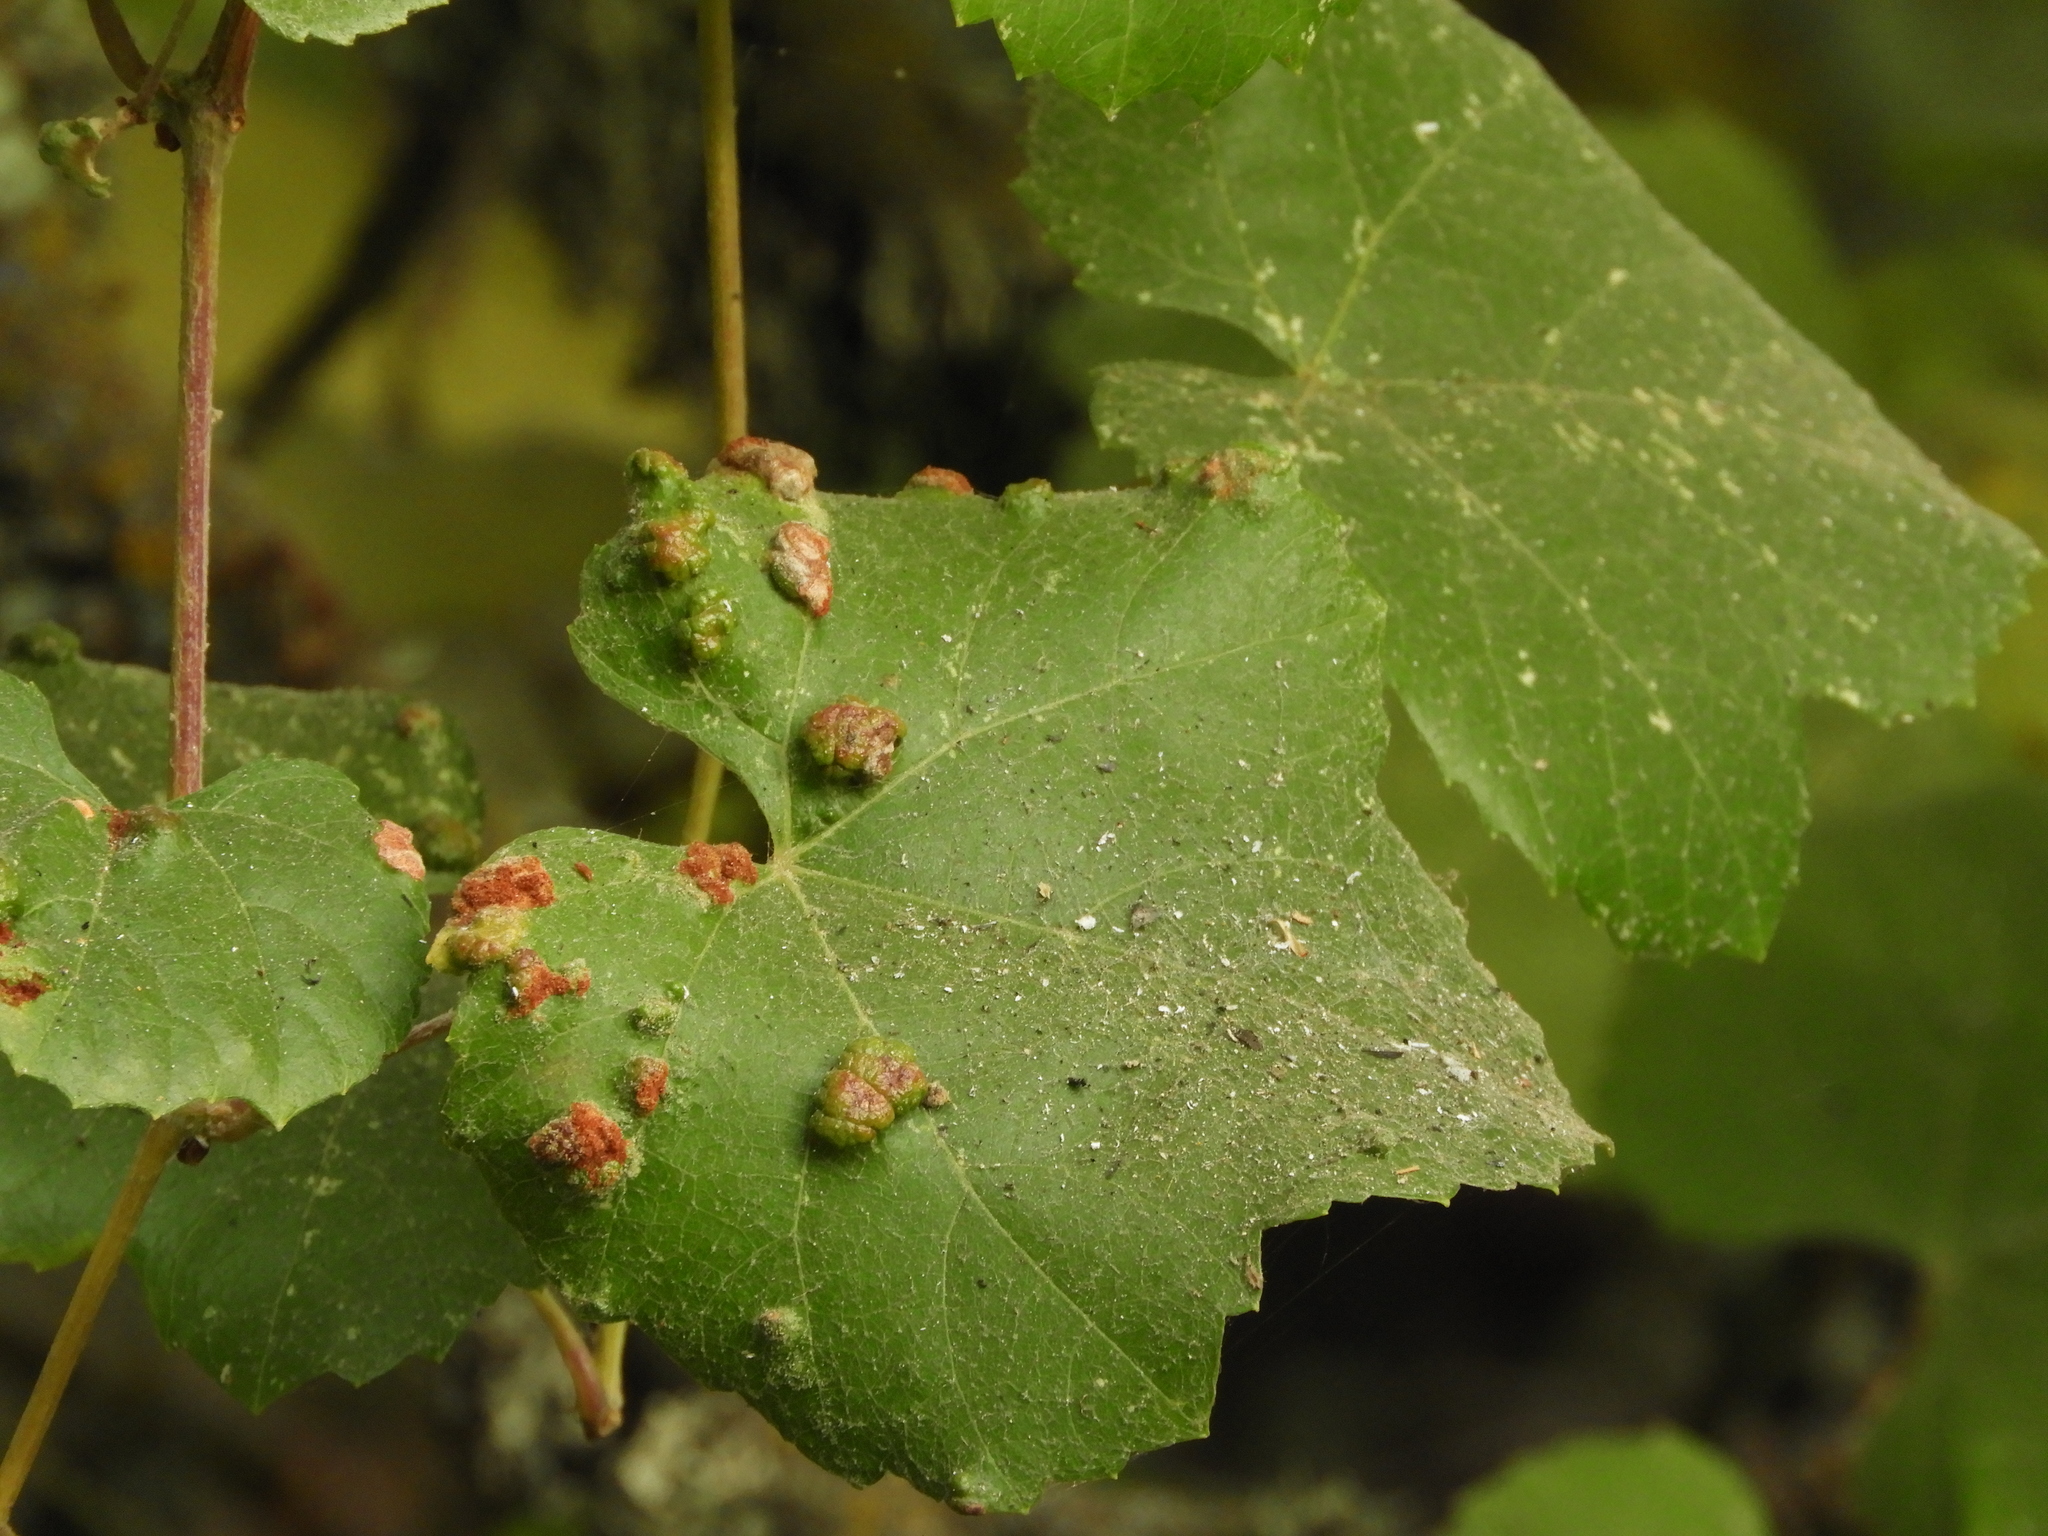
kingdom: Animalia
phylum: Arthropoda
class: Arachnida
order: Trombidiformes
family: Eriophyidae
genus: Colomerus
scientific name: Colomerus vitis
